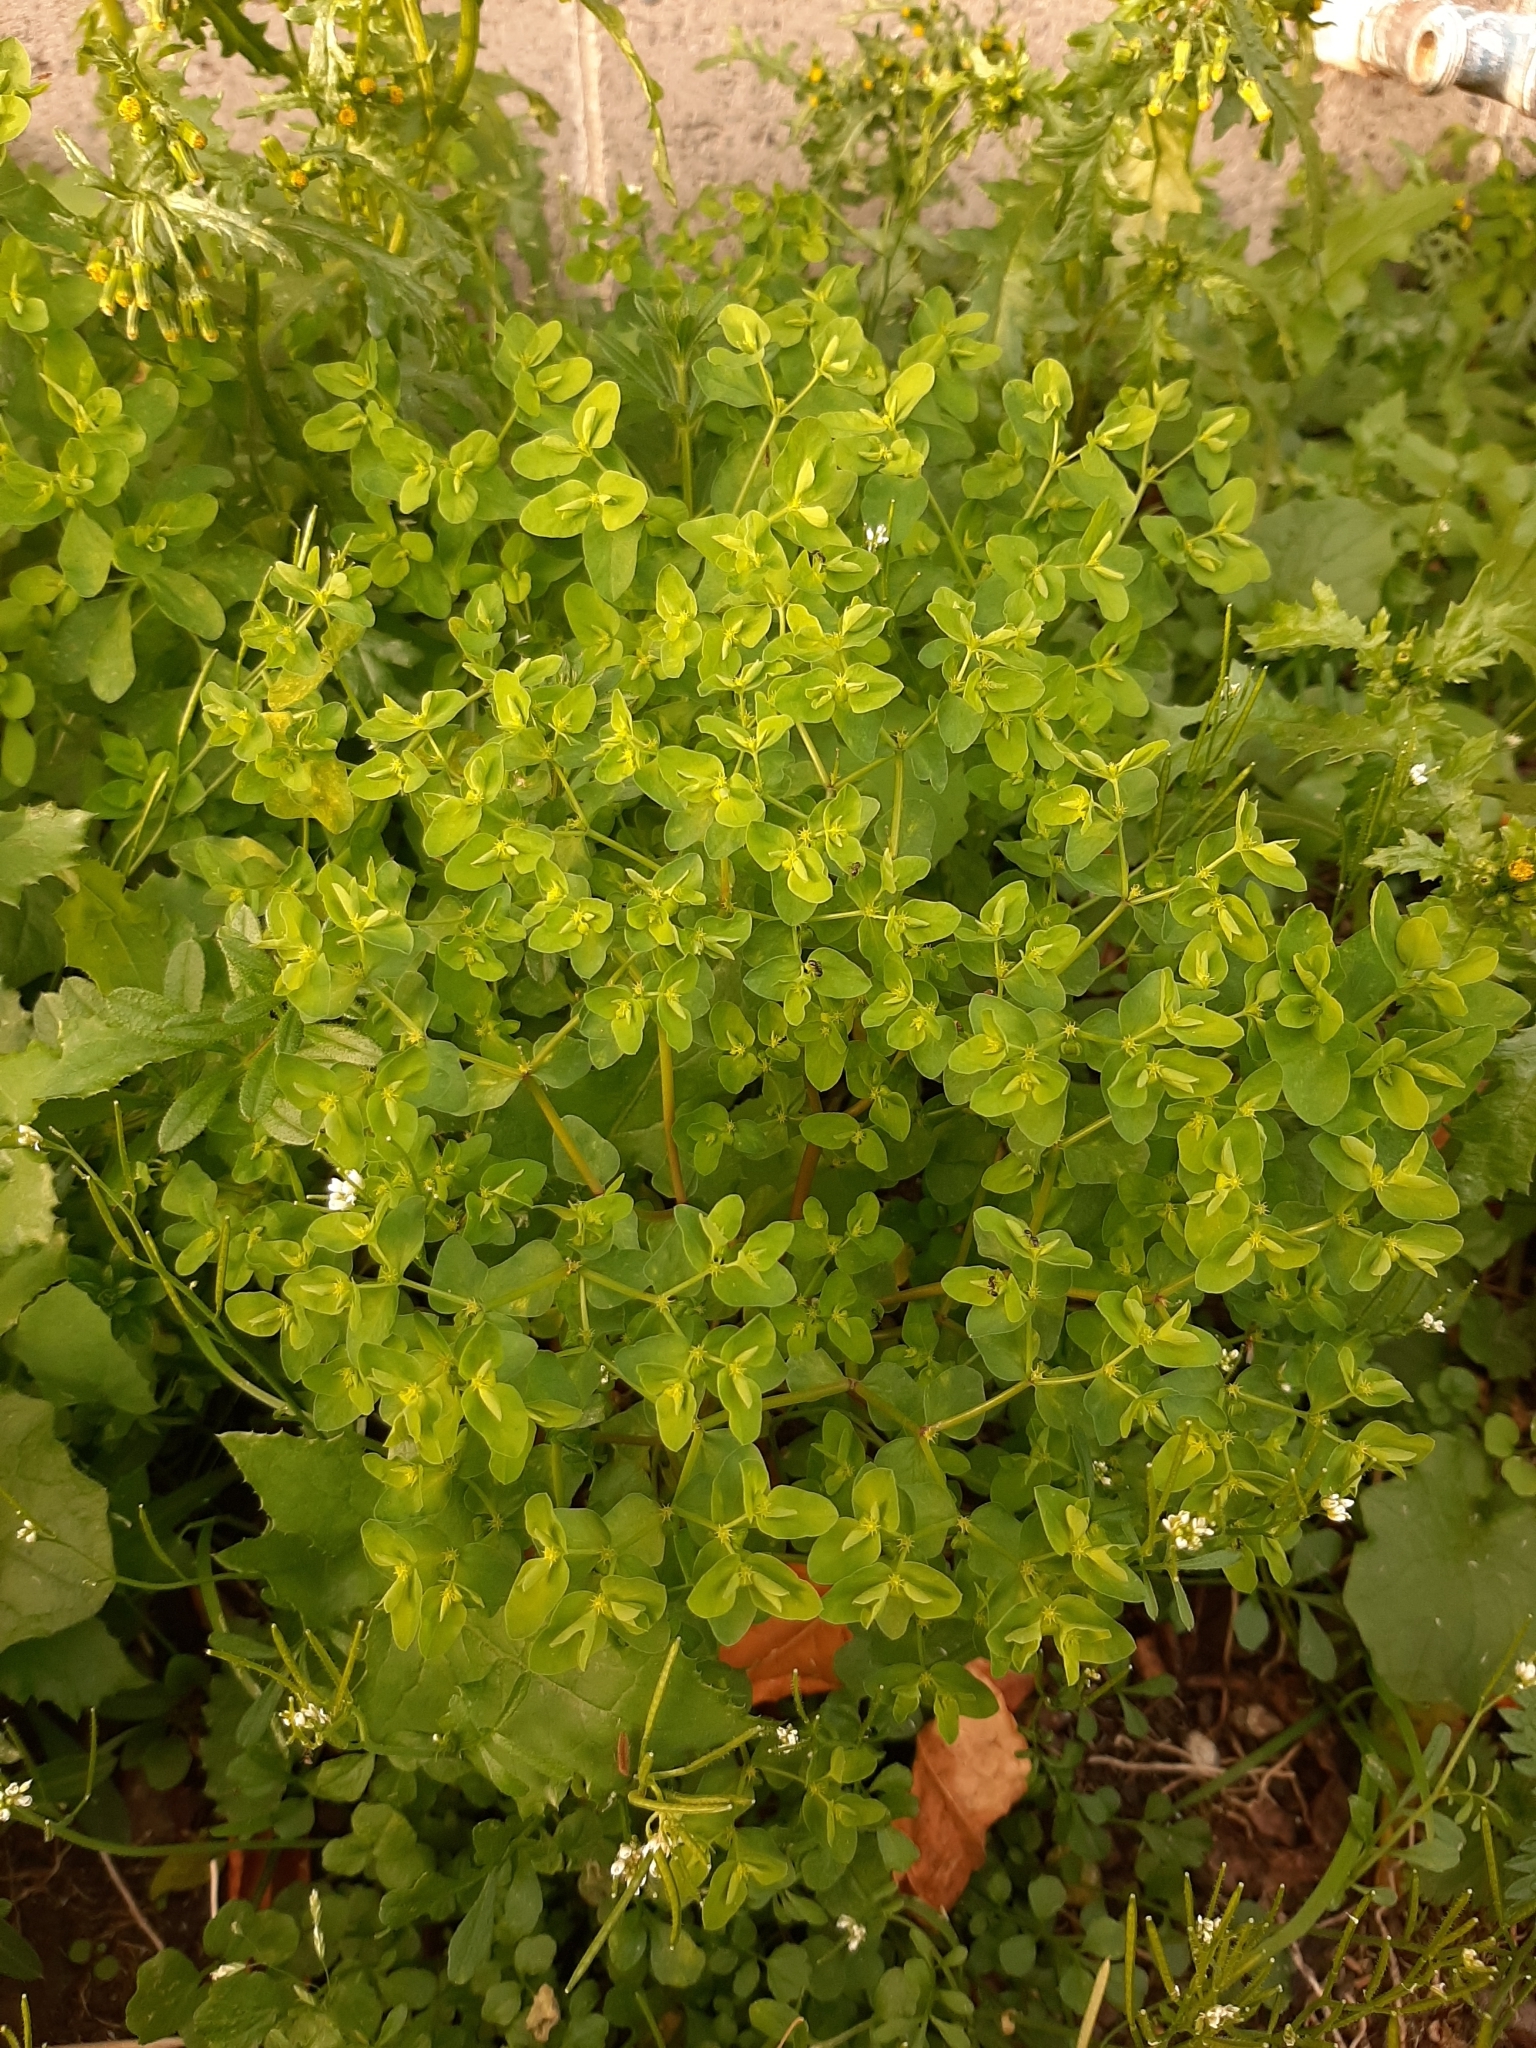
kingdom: Plantae
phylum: Tracheophyta
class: Magnoliopsida
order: Malpighiales
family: Euphorbiaceae
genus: Euphorbia
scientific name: Euphorbia peplus
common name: Petty spurge
